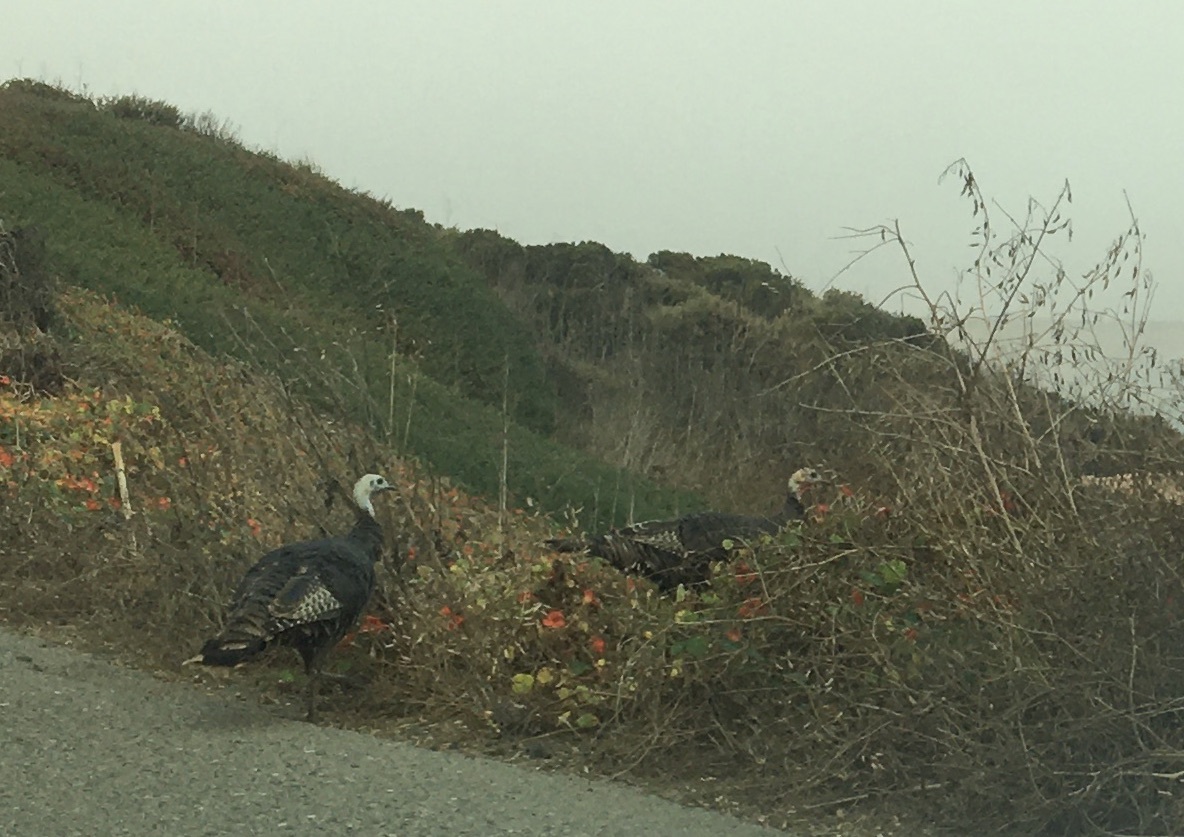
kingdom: Animalia
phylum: Chordata
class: Aves
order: Galliformes
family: Phasianidae
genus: Meleagris
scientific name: Meleagris gallopavo
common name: Wild turkey
